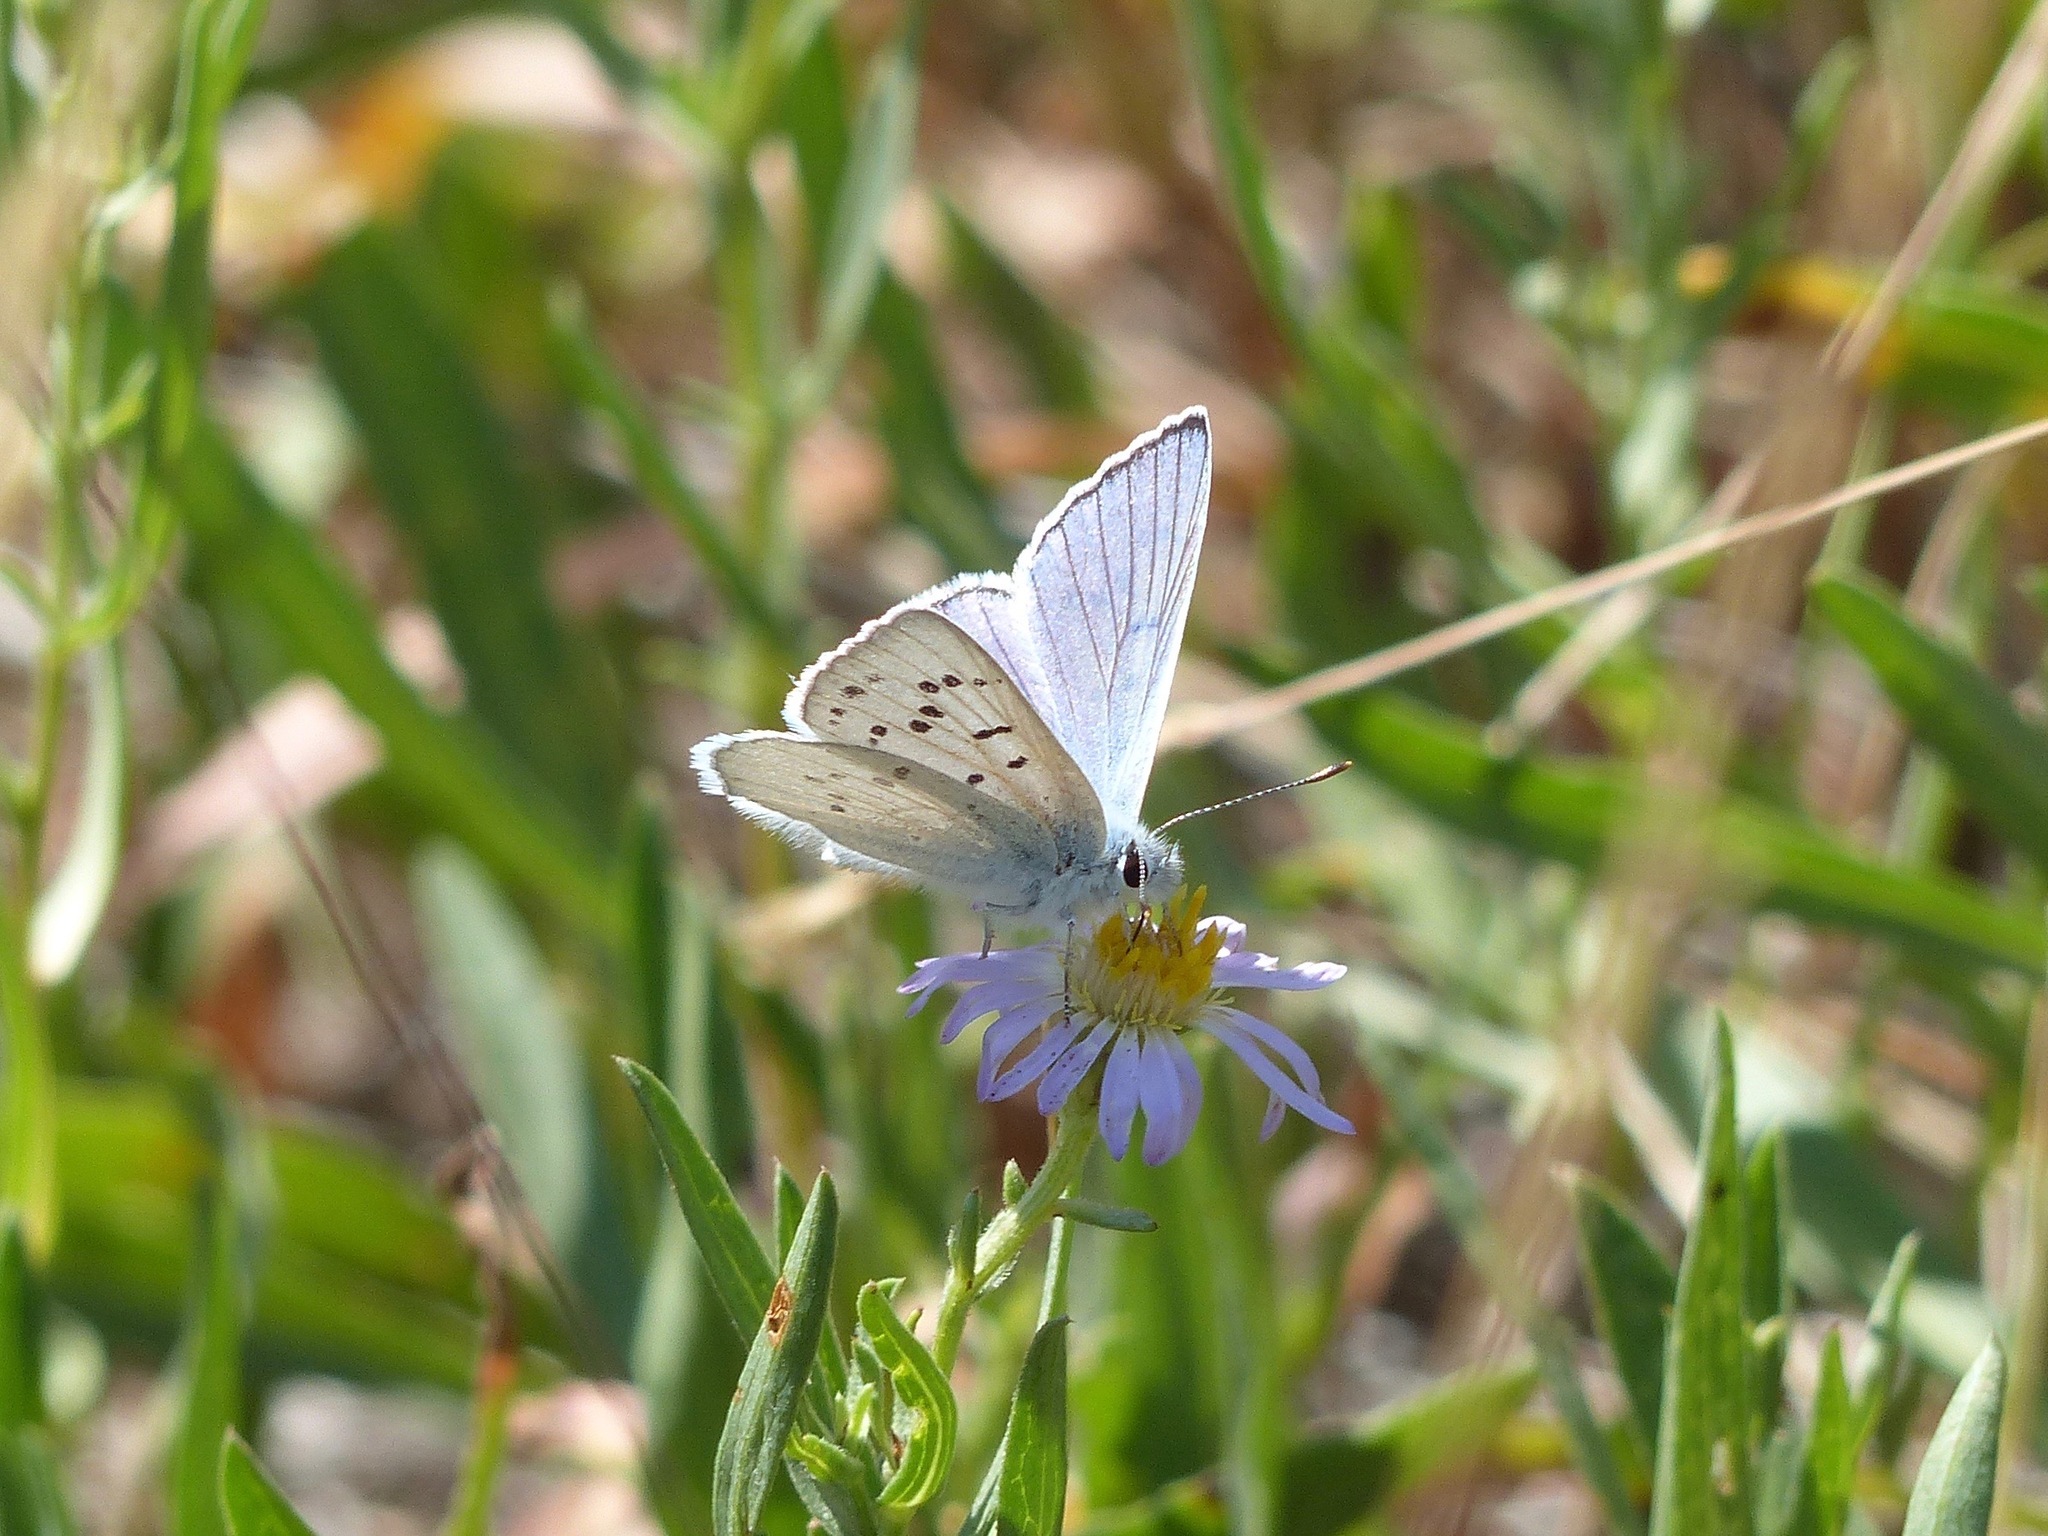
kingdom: Animalia
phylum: Arthropoda
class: Insecta
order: Lepidoptera
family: Lycaenidae
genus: Tharsalea
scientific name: Tharsalea heteronea
